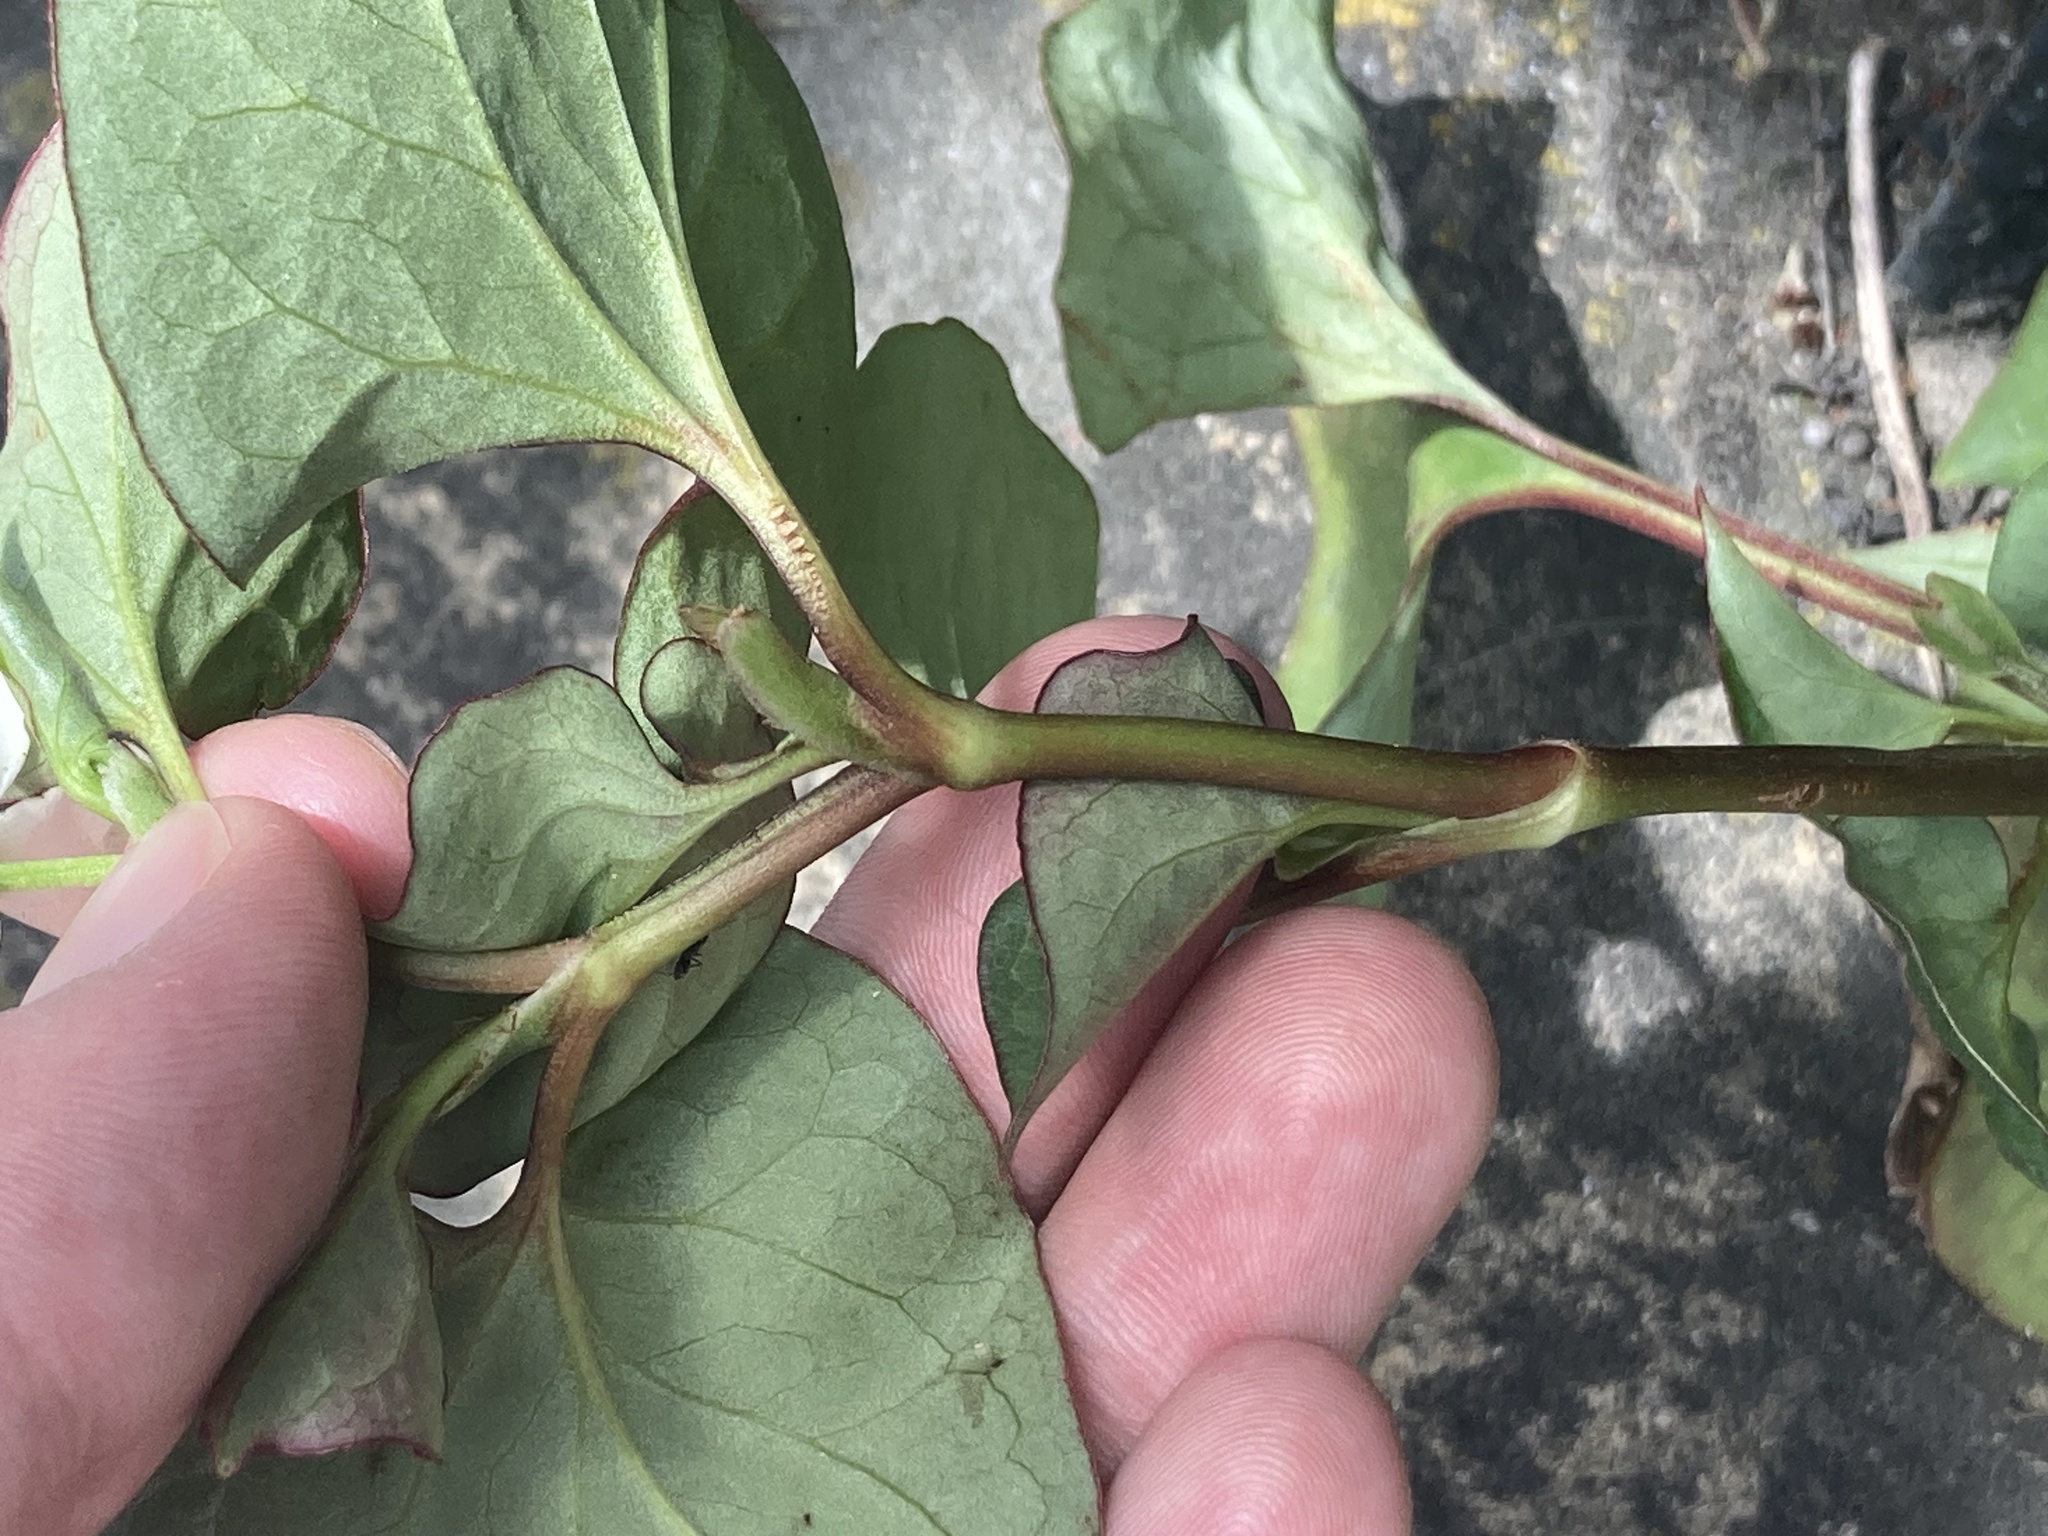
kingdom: Plantae
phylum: Tracheophyta
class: Magnoliopsida
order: Piperales
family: Saururaceae
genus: Houttuynia
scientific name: Houttuynia cordata
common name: Chameleon
